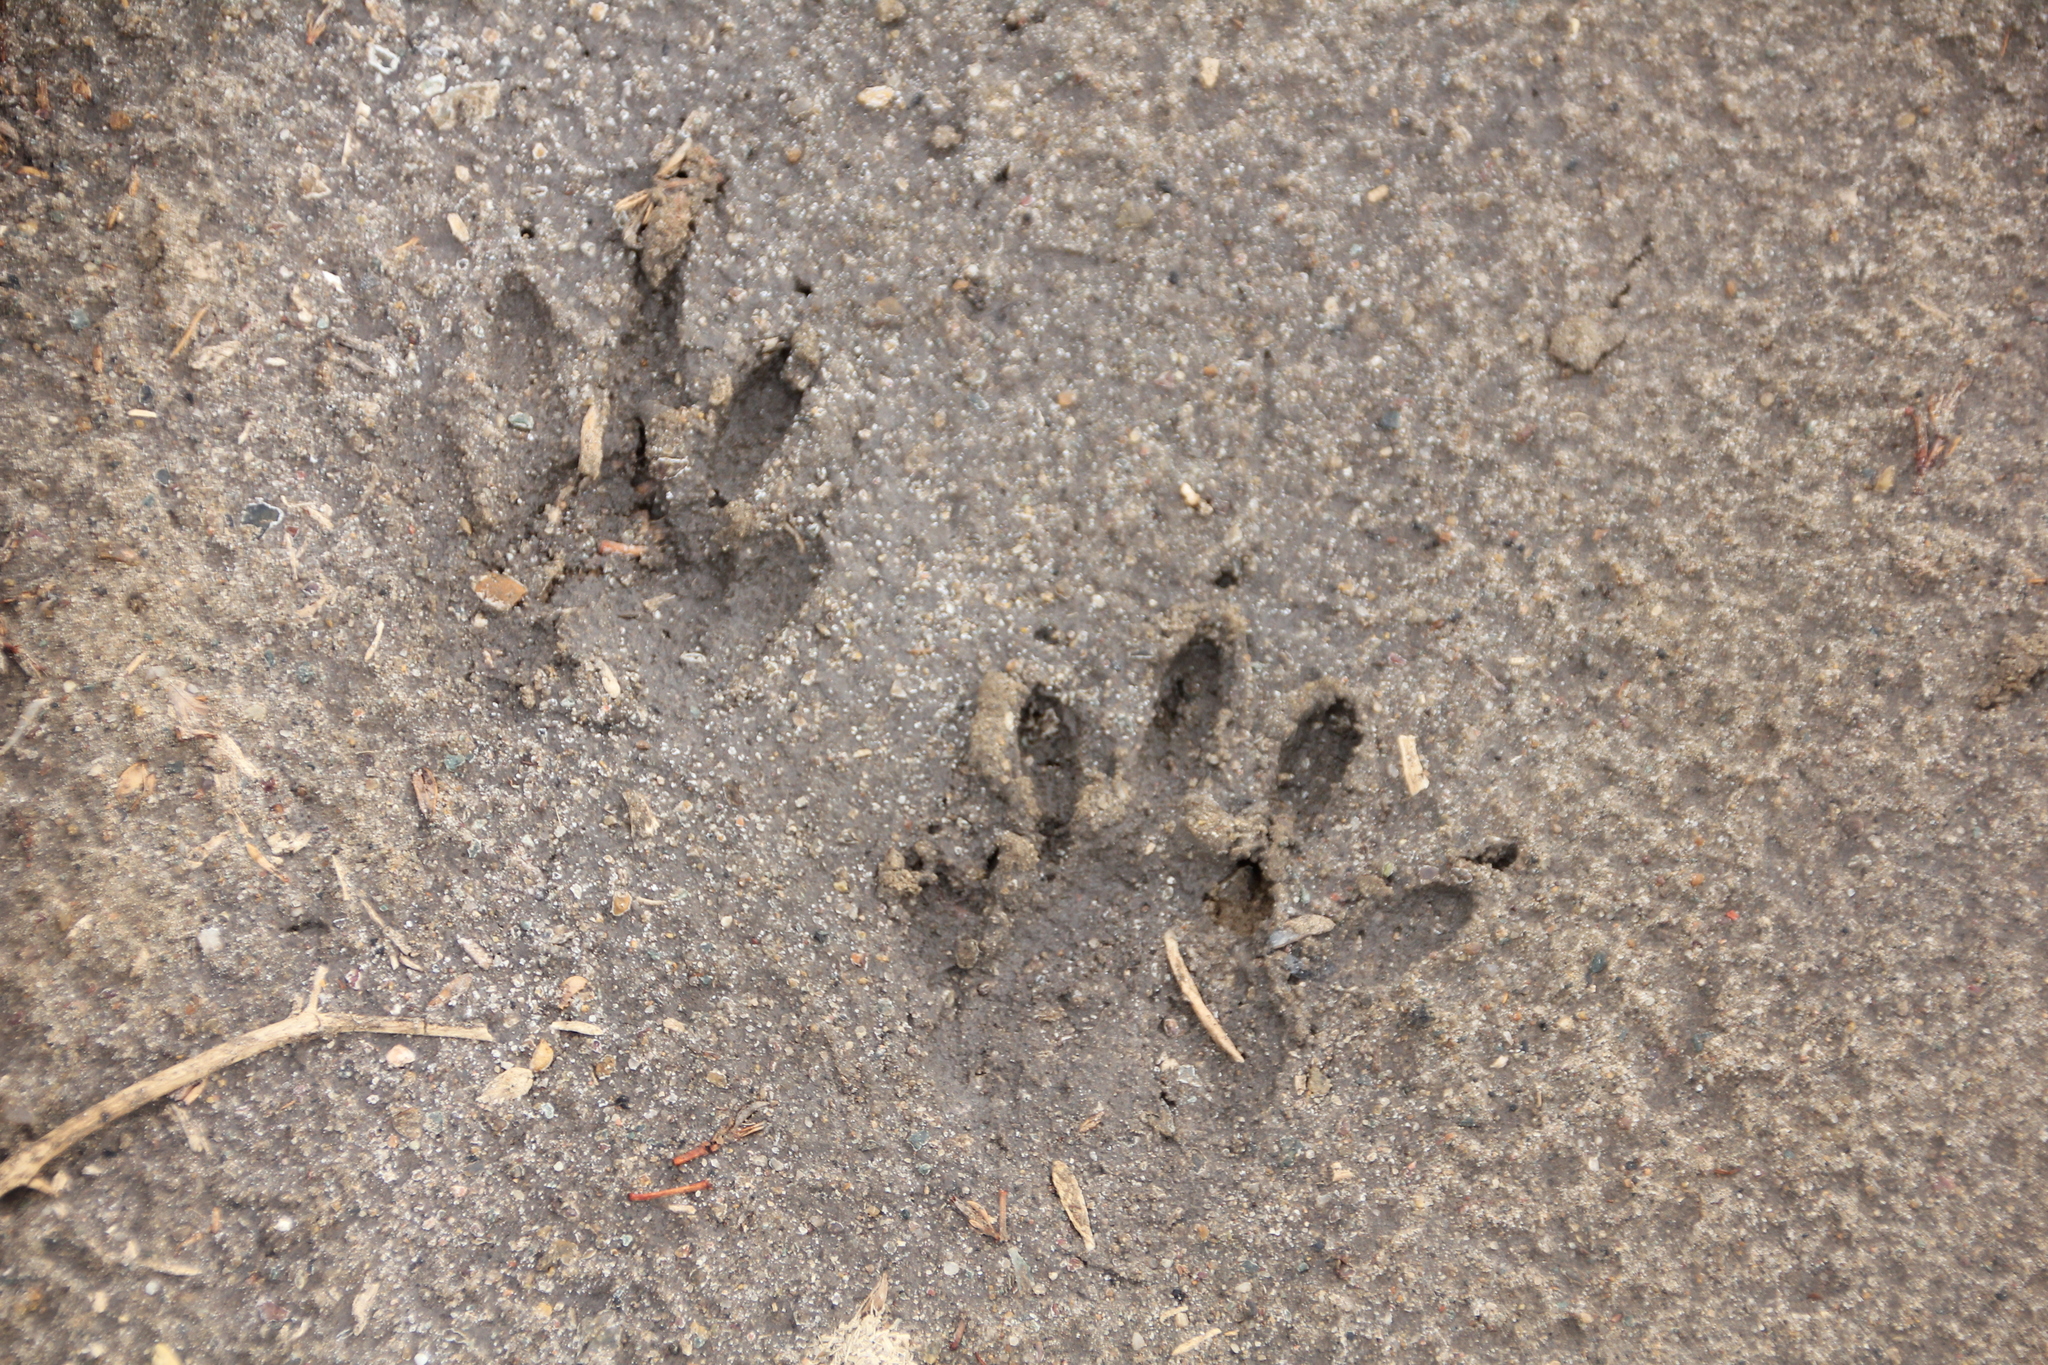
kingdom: Animalia
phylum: Chordata
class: Mammalia
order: Carnivora
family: Procyonidae
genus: Procyon
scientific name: Procyon lotor
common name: Raccoon
